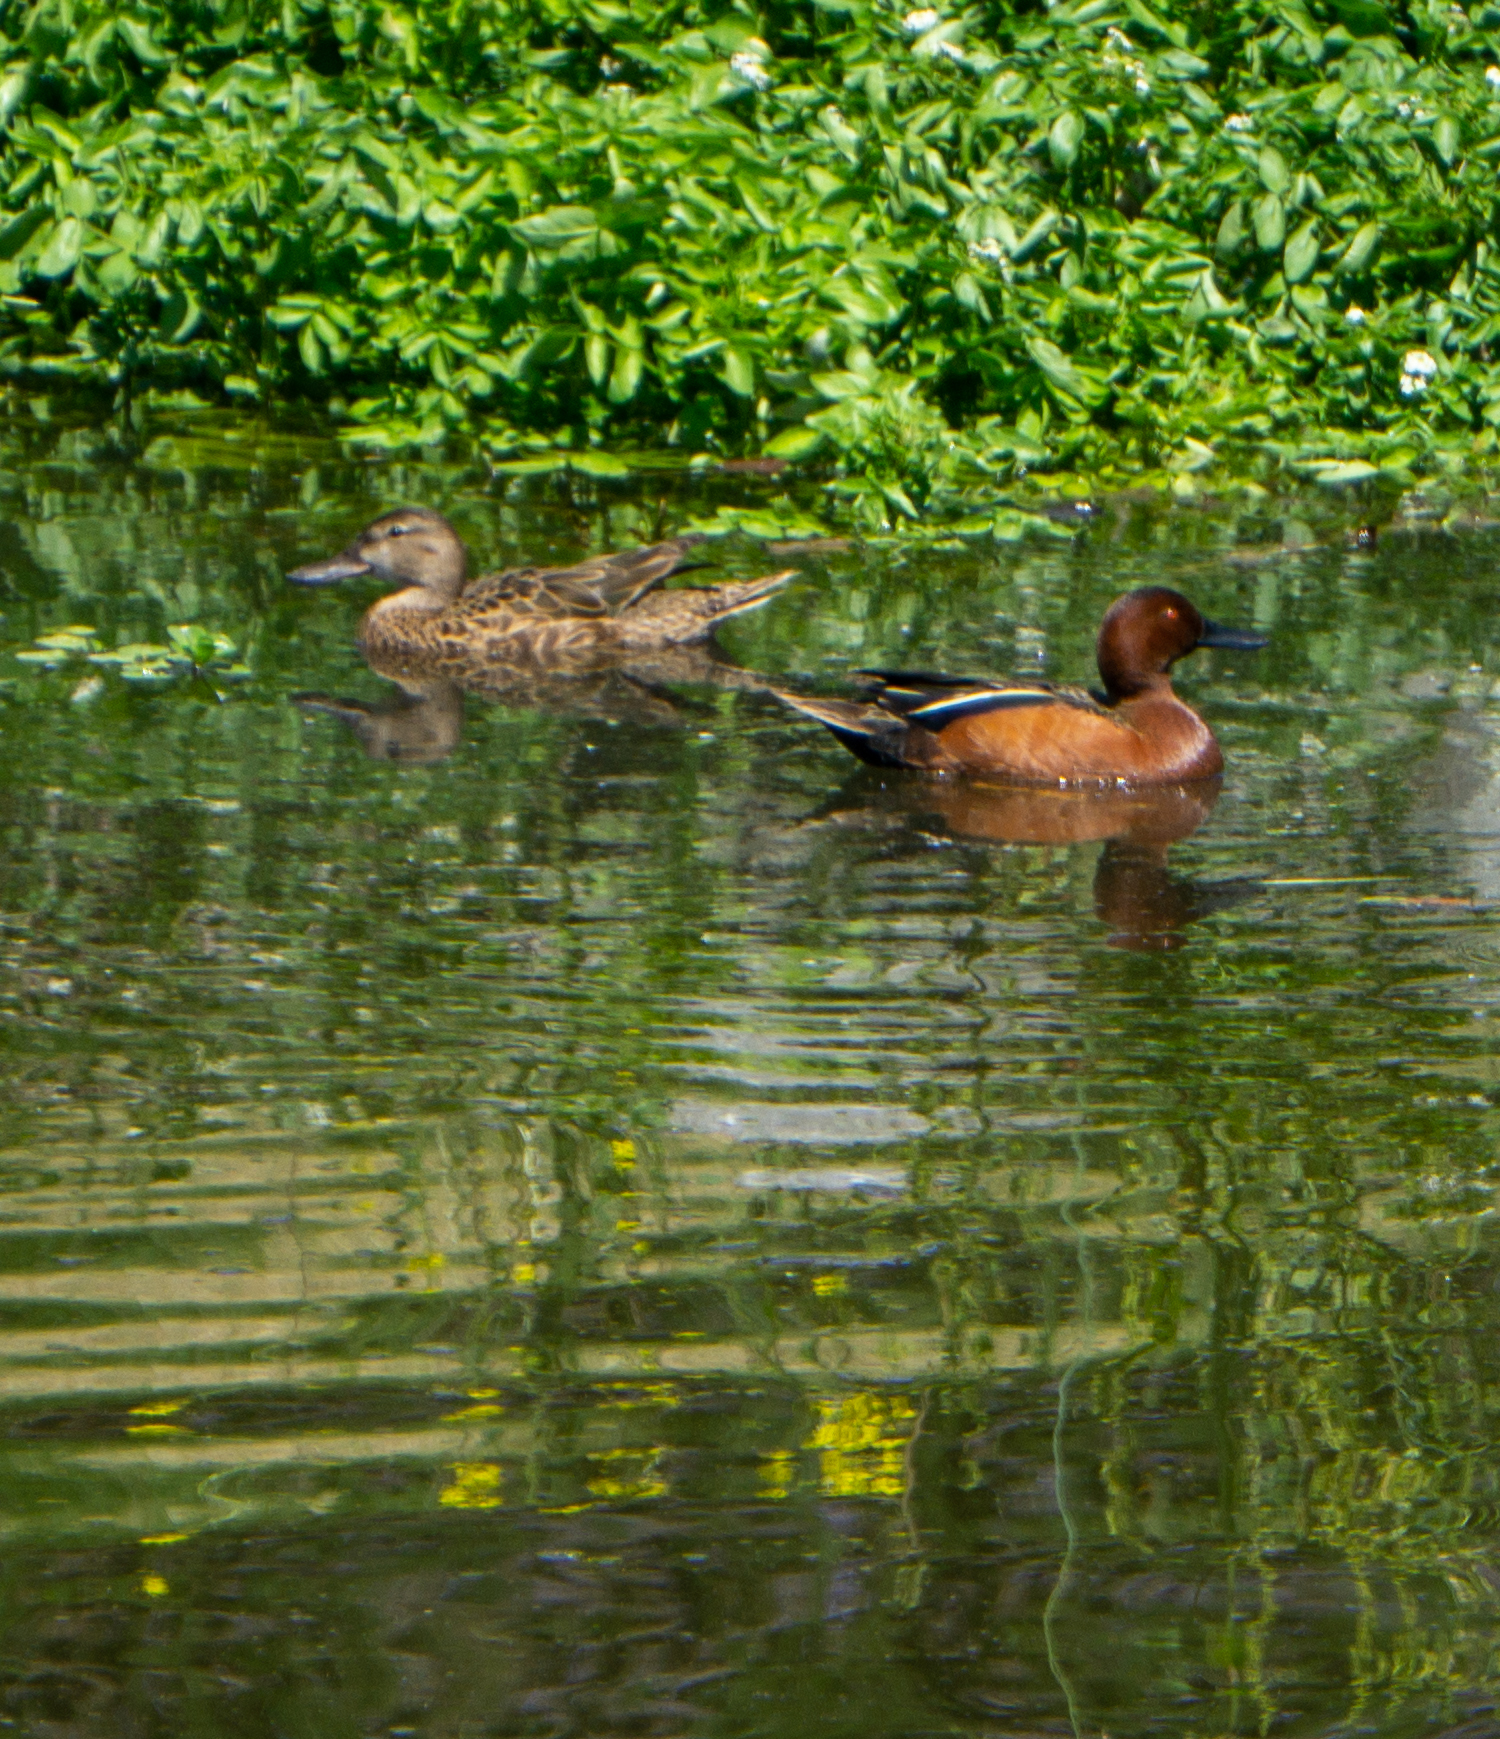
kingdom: Animalia
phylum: Chordata
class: Aves
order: Anseriformes
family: Anatidae
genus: Spatula
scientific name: Spatula cyanoptera
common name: Cinnamon teal
